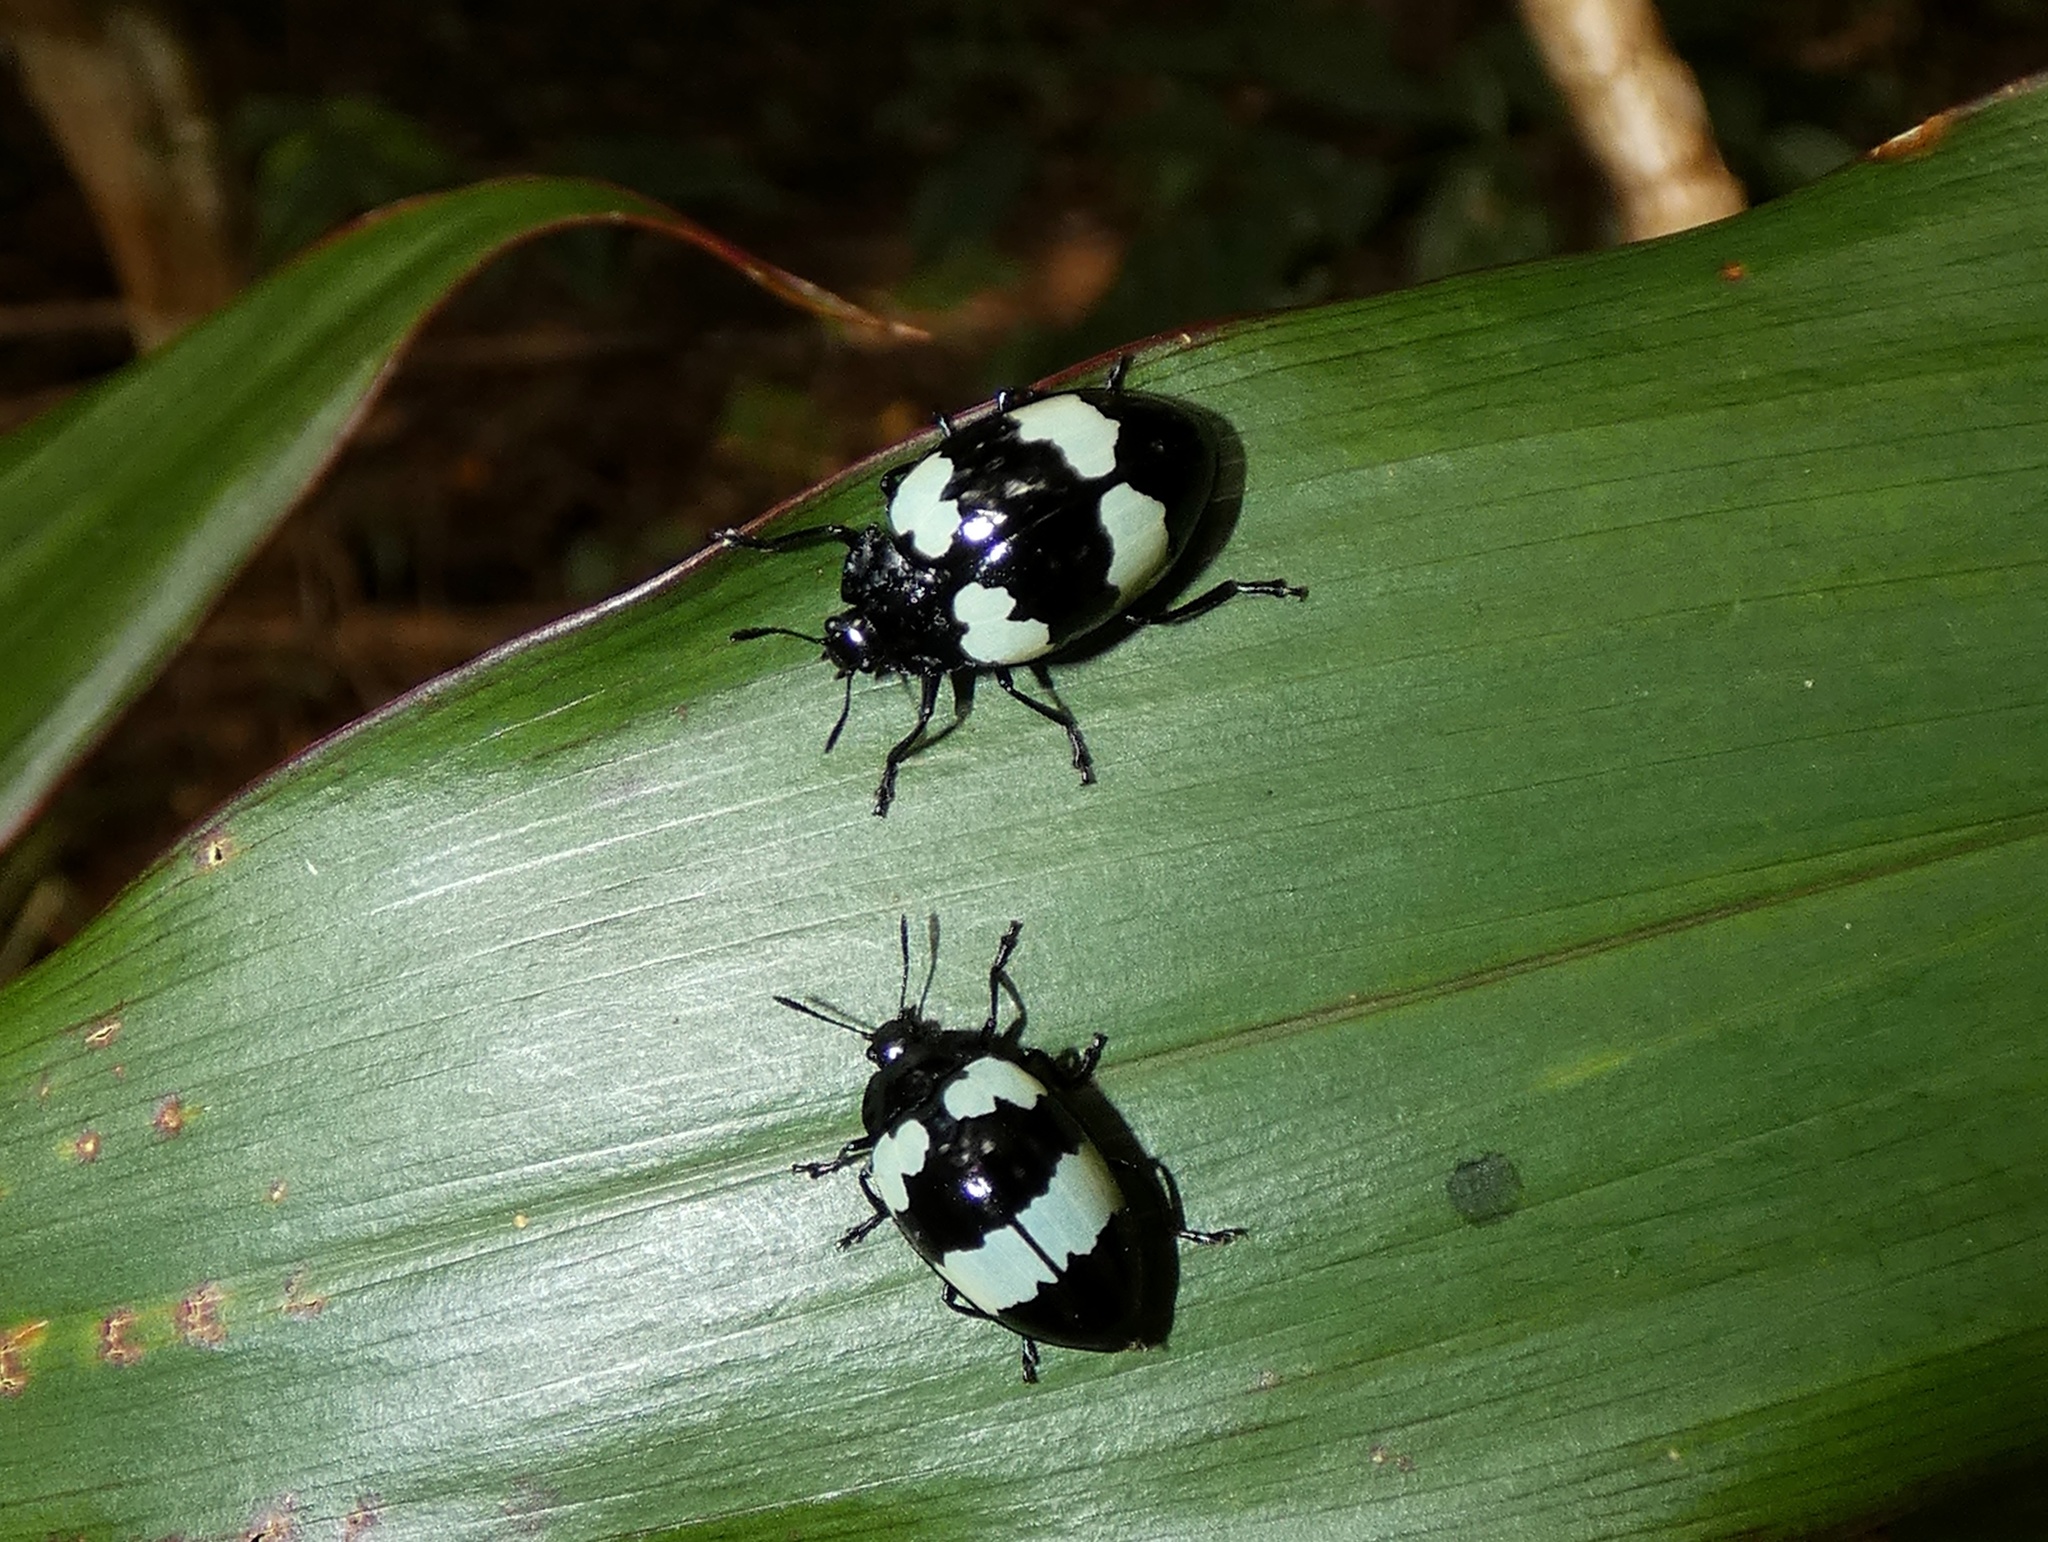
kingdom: Animalia
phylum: Arthropoda
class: Insecta
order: Coleoptera
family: Erotylidae
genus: Barytopus
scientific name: Barytopus lunulatus
